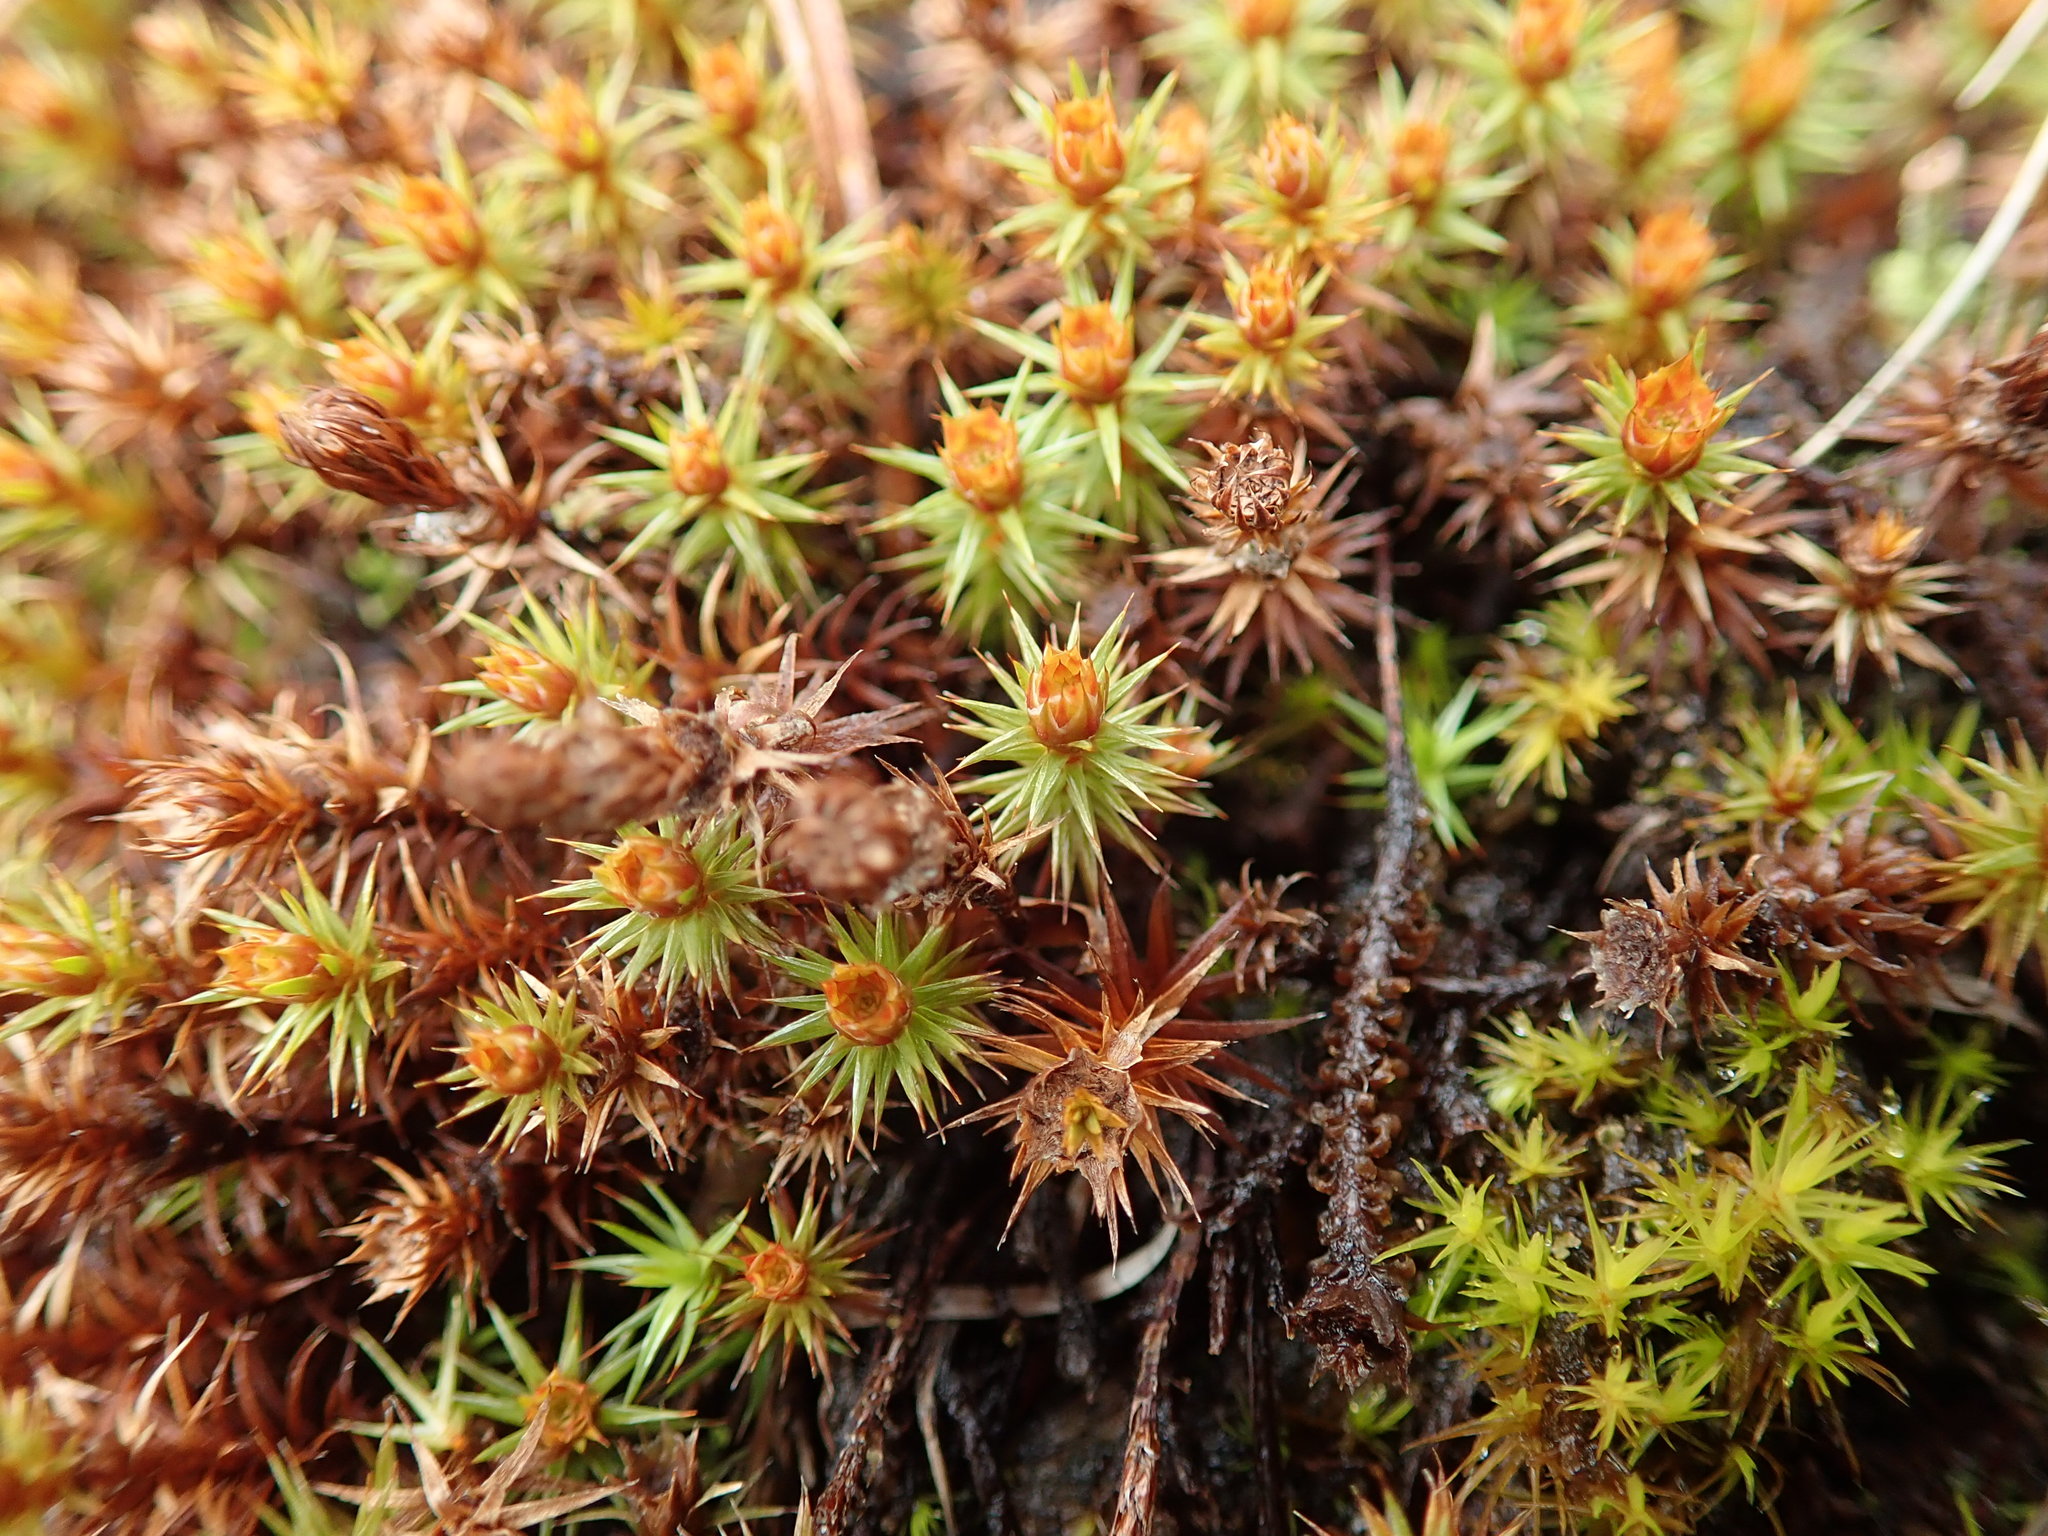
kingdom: Plantae
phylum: Bryophyta
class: Polytrichopsida
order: Polytrichales
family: Polytrichaceae
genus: Polytrichum
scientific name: Polytrichum juniperinum
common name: Juniper haircap moss
